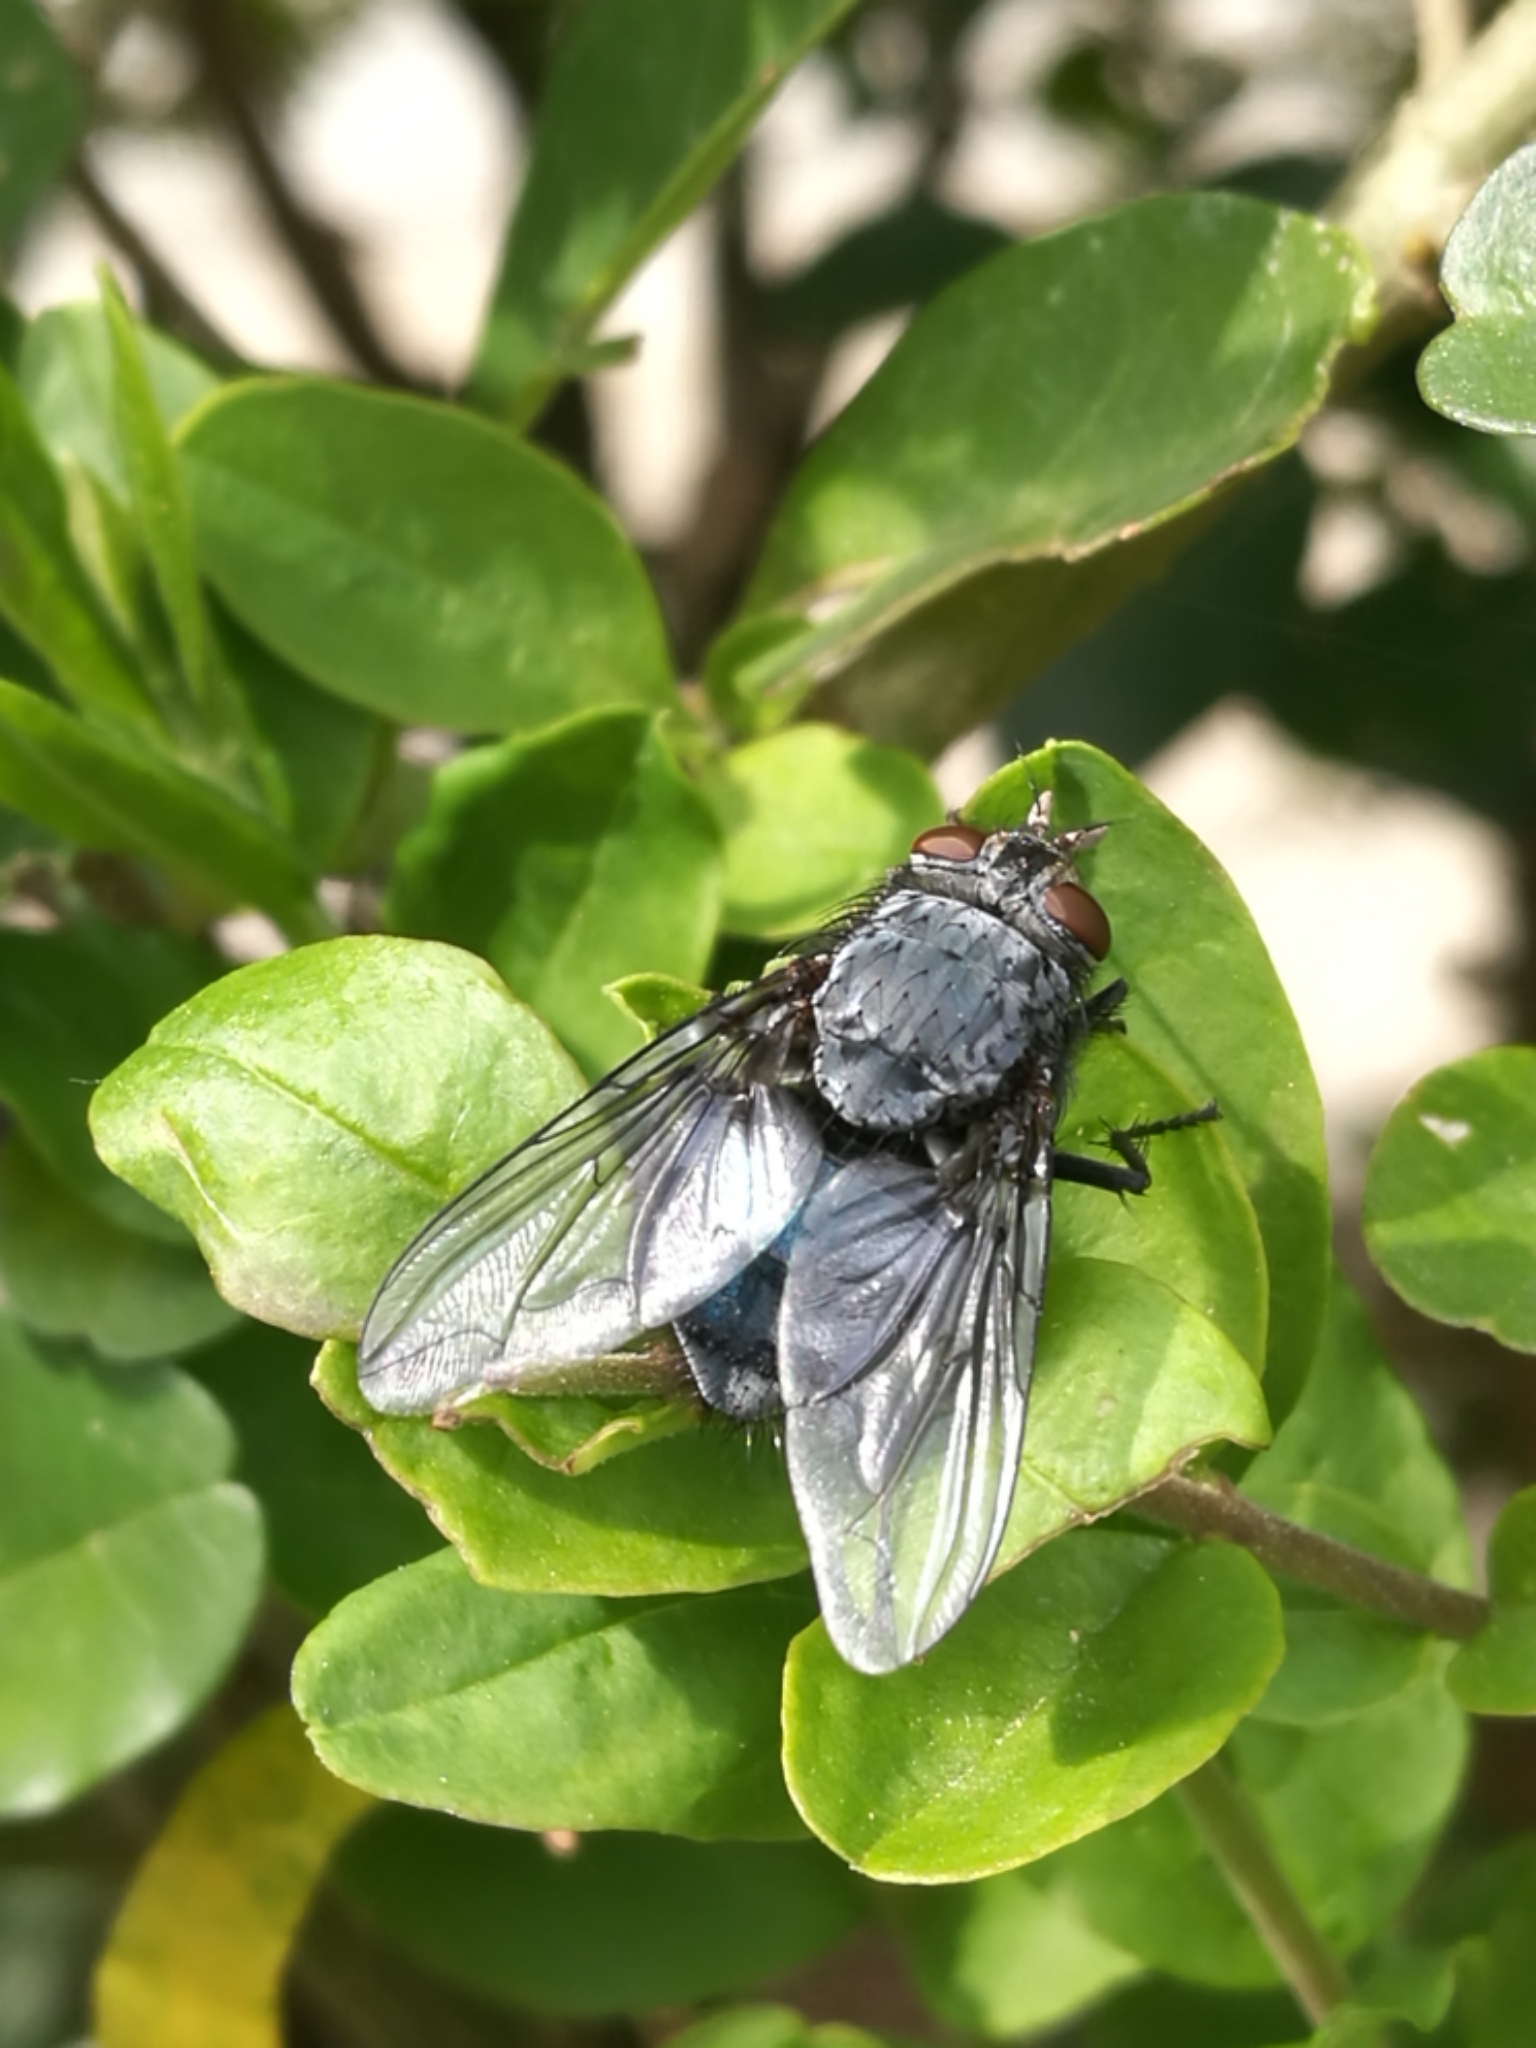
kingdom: Animalia
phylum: Arthropoda
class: Insecta
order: Diptera
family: Calliphoridae
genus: Calliphora
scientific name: Calliphora vicina
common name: Common blow flie
